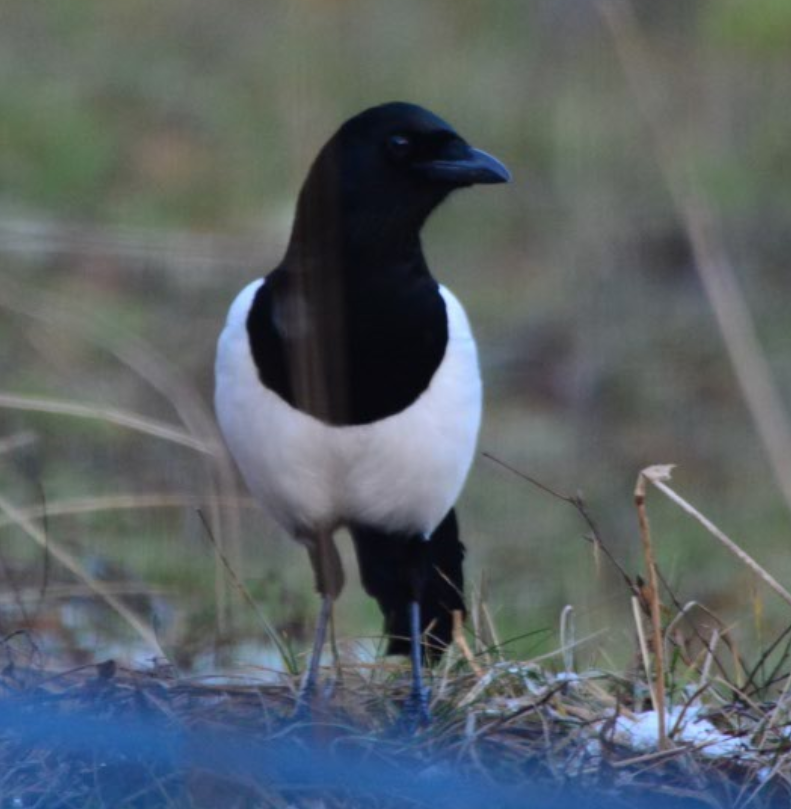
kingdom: Animalia
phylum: Chordata
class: Aves
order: Passeriformes
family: Corvidae
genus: Pica
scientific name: Pica pica
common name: Eurasian magpie
